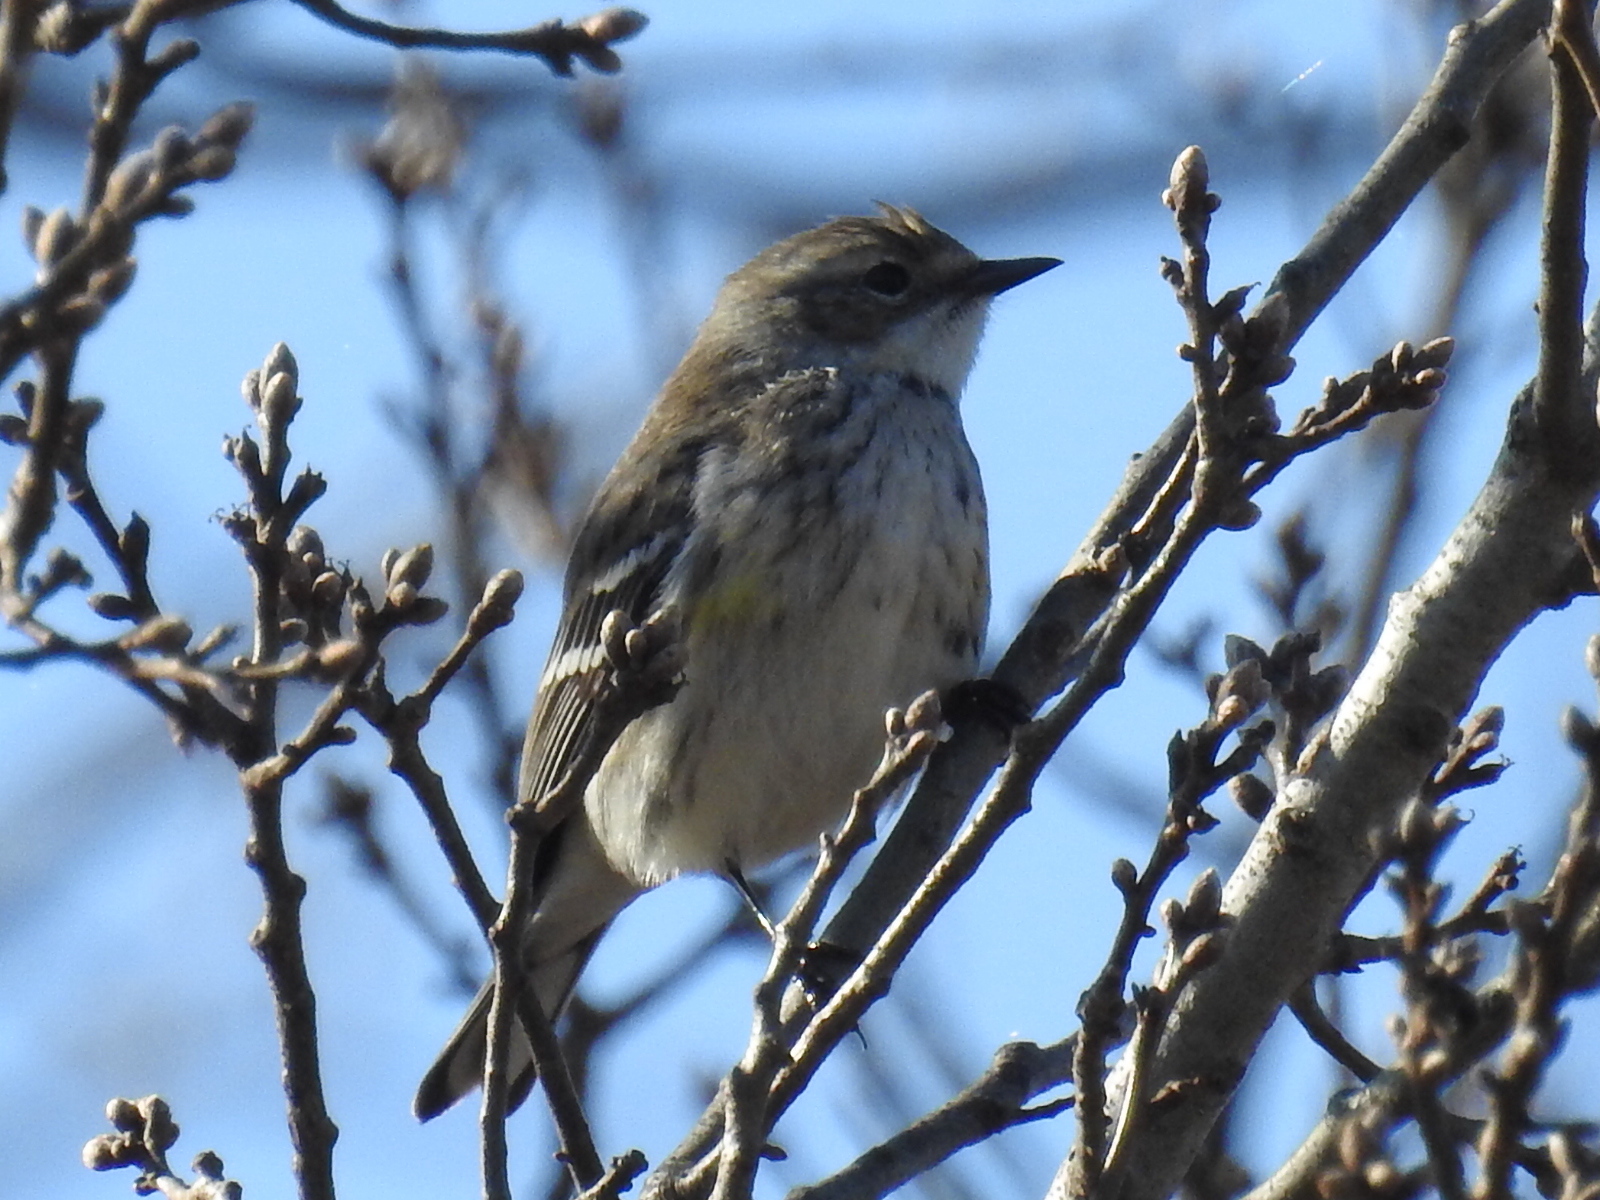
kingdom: Animalia
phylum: Chordata
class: Aves
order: Passeriformes
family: Parulidae
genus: Setophaga
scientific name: Setophaga coronata
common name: Myrtle warbler
